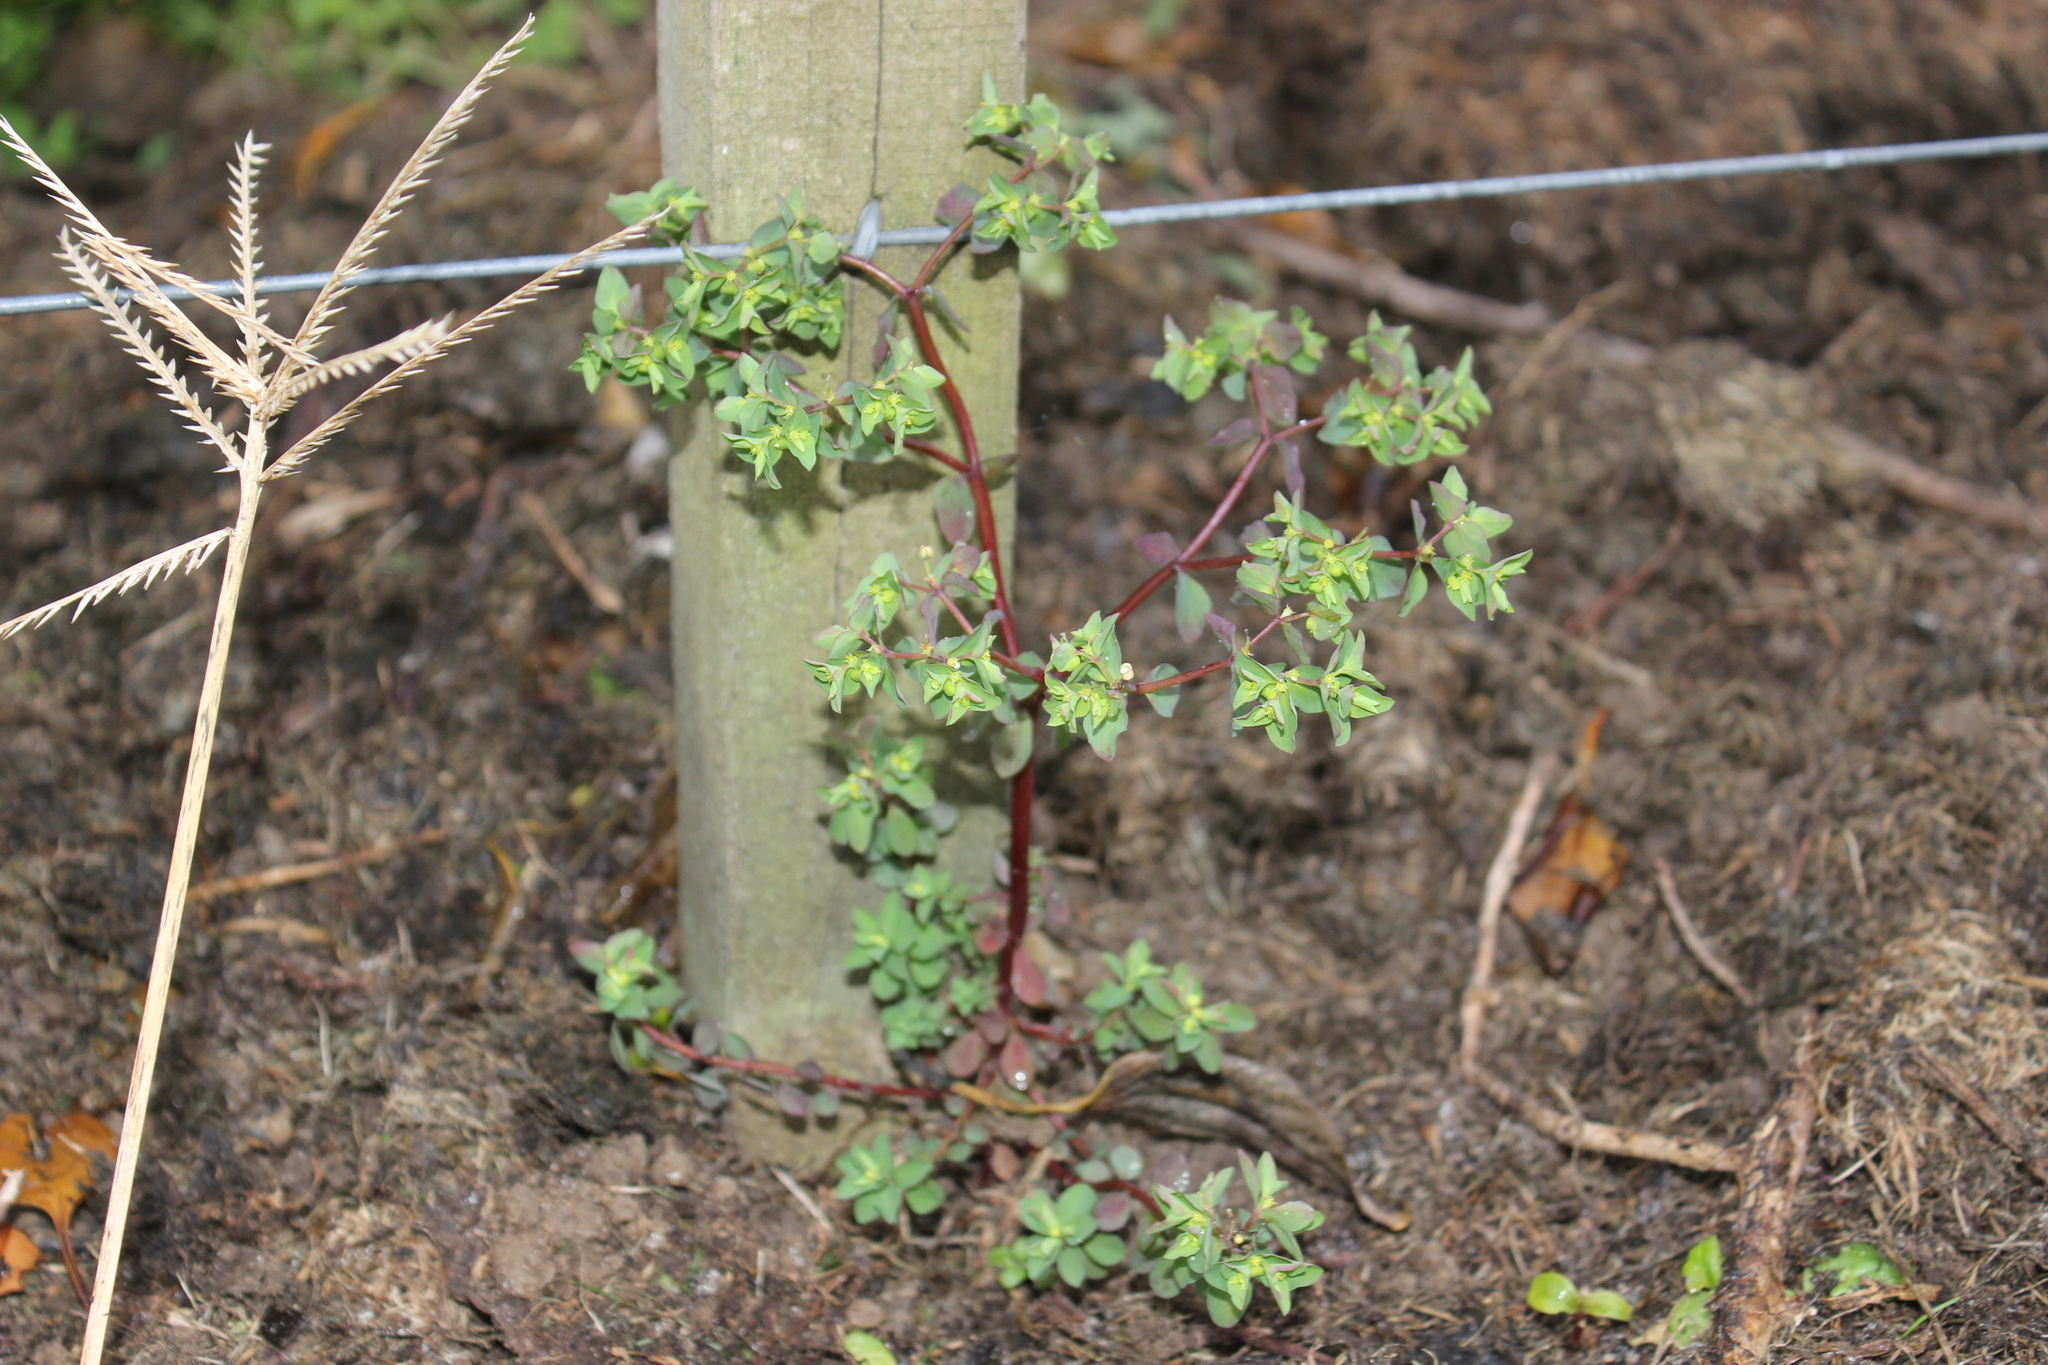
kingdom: Plantae
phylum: Tracheophyta
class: Magnoliopsida
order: Malpighiales
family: Euphorbiaceae
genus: Euphorbia
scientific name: Euphorbia peplus
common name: Petty spurge
